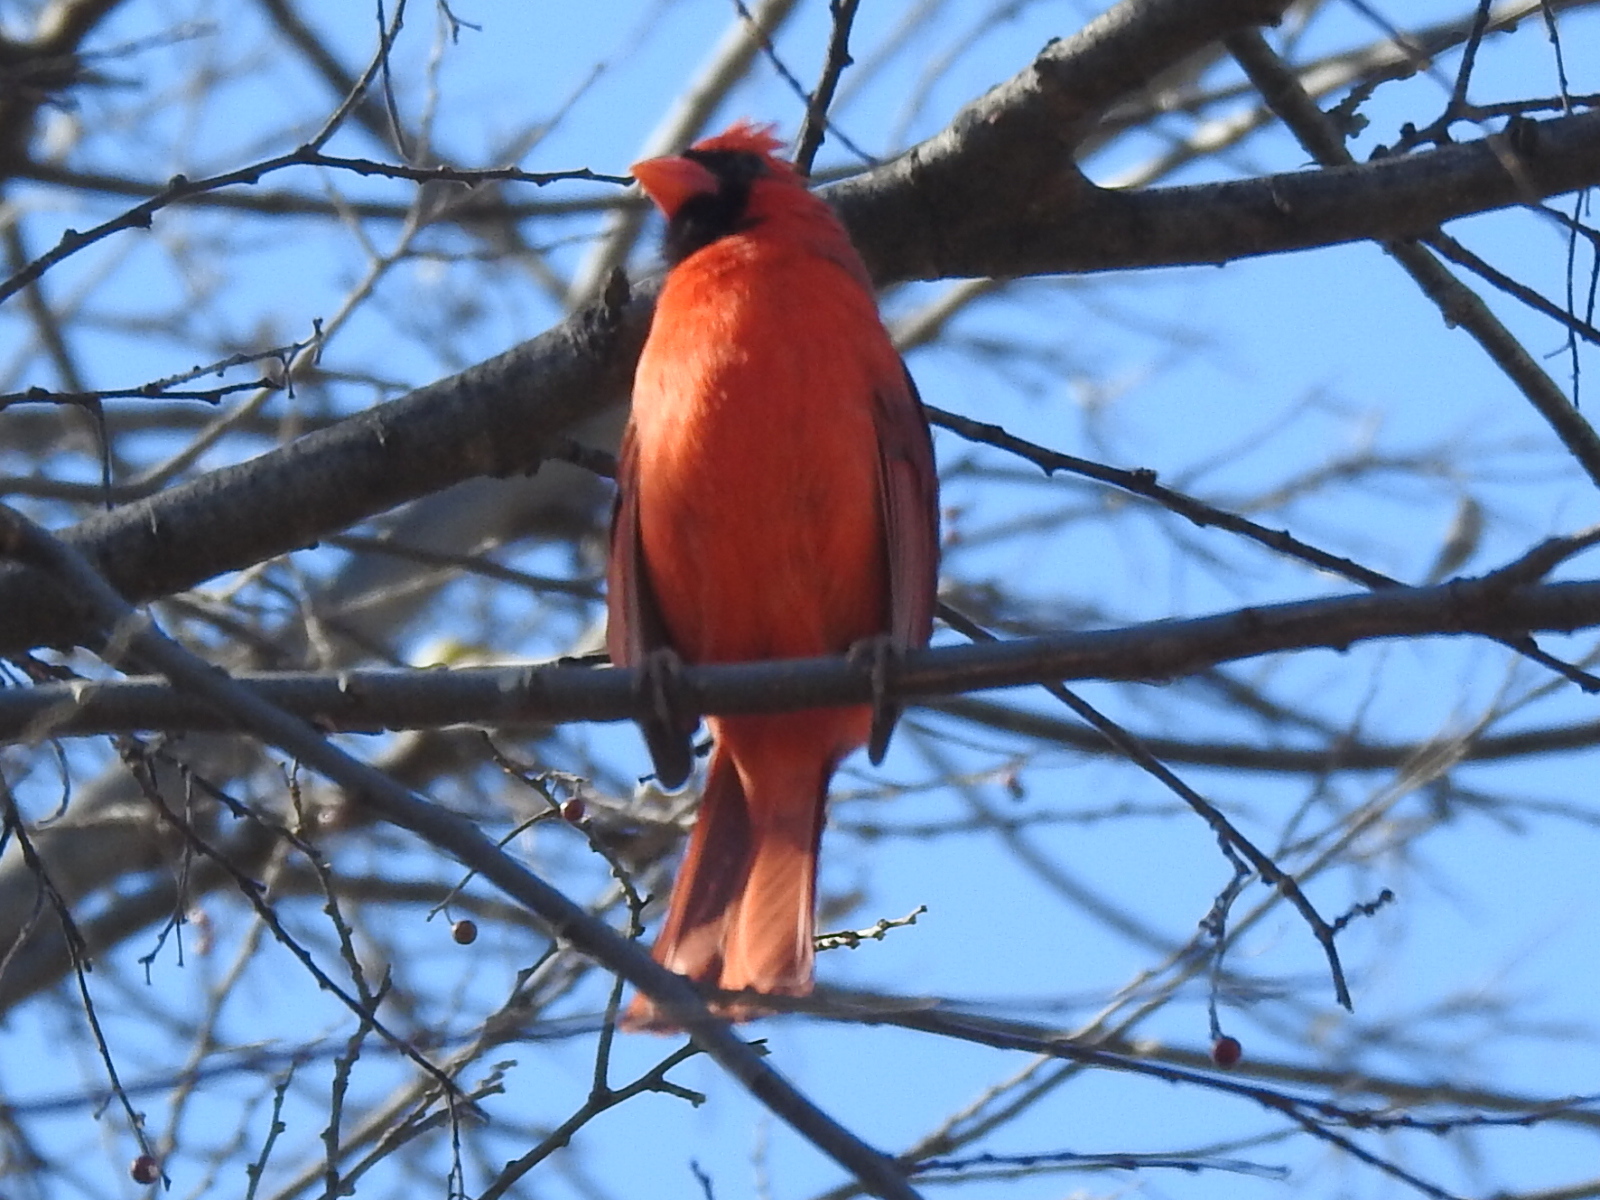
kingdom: Animalia
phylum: Chordata
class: Aves
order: Passeriformes
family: Cardinalidae
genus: Cardinalis
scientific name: Cardinalis cardinalis
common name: Northern cardinal
